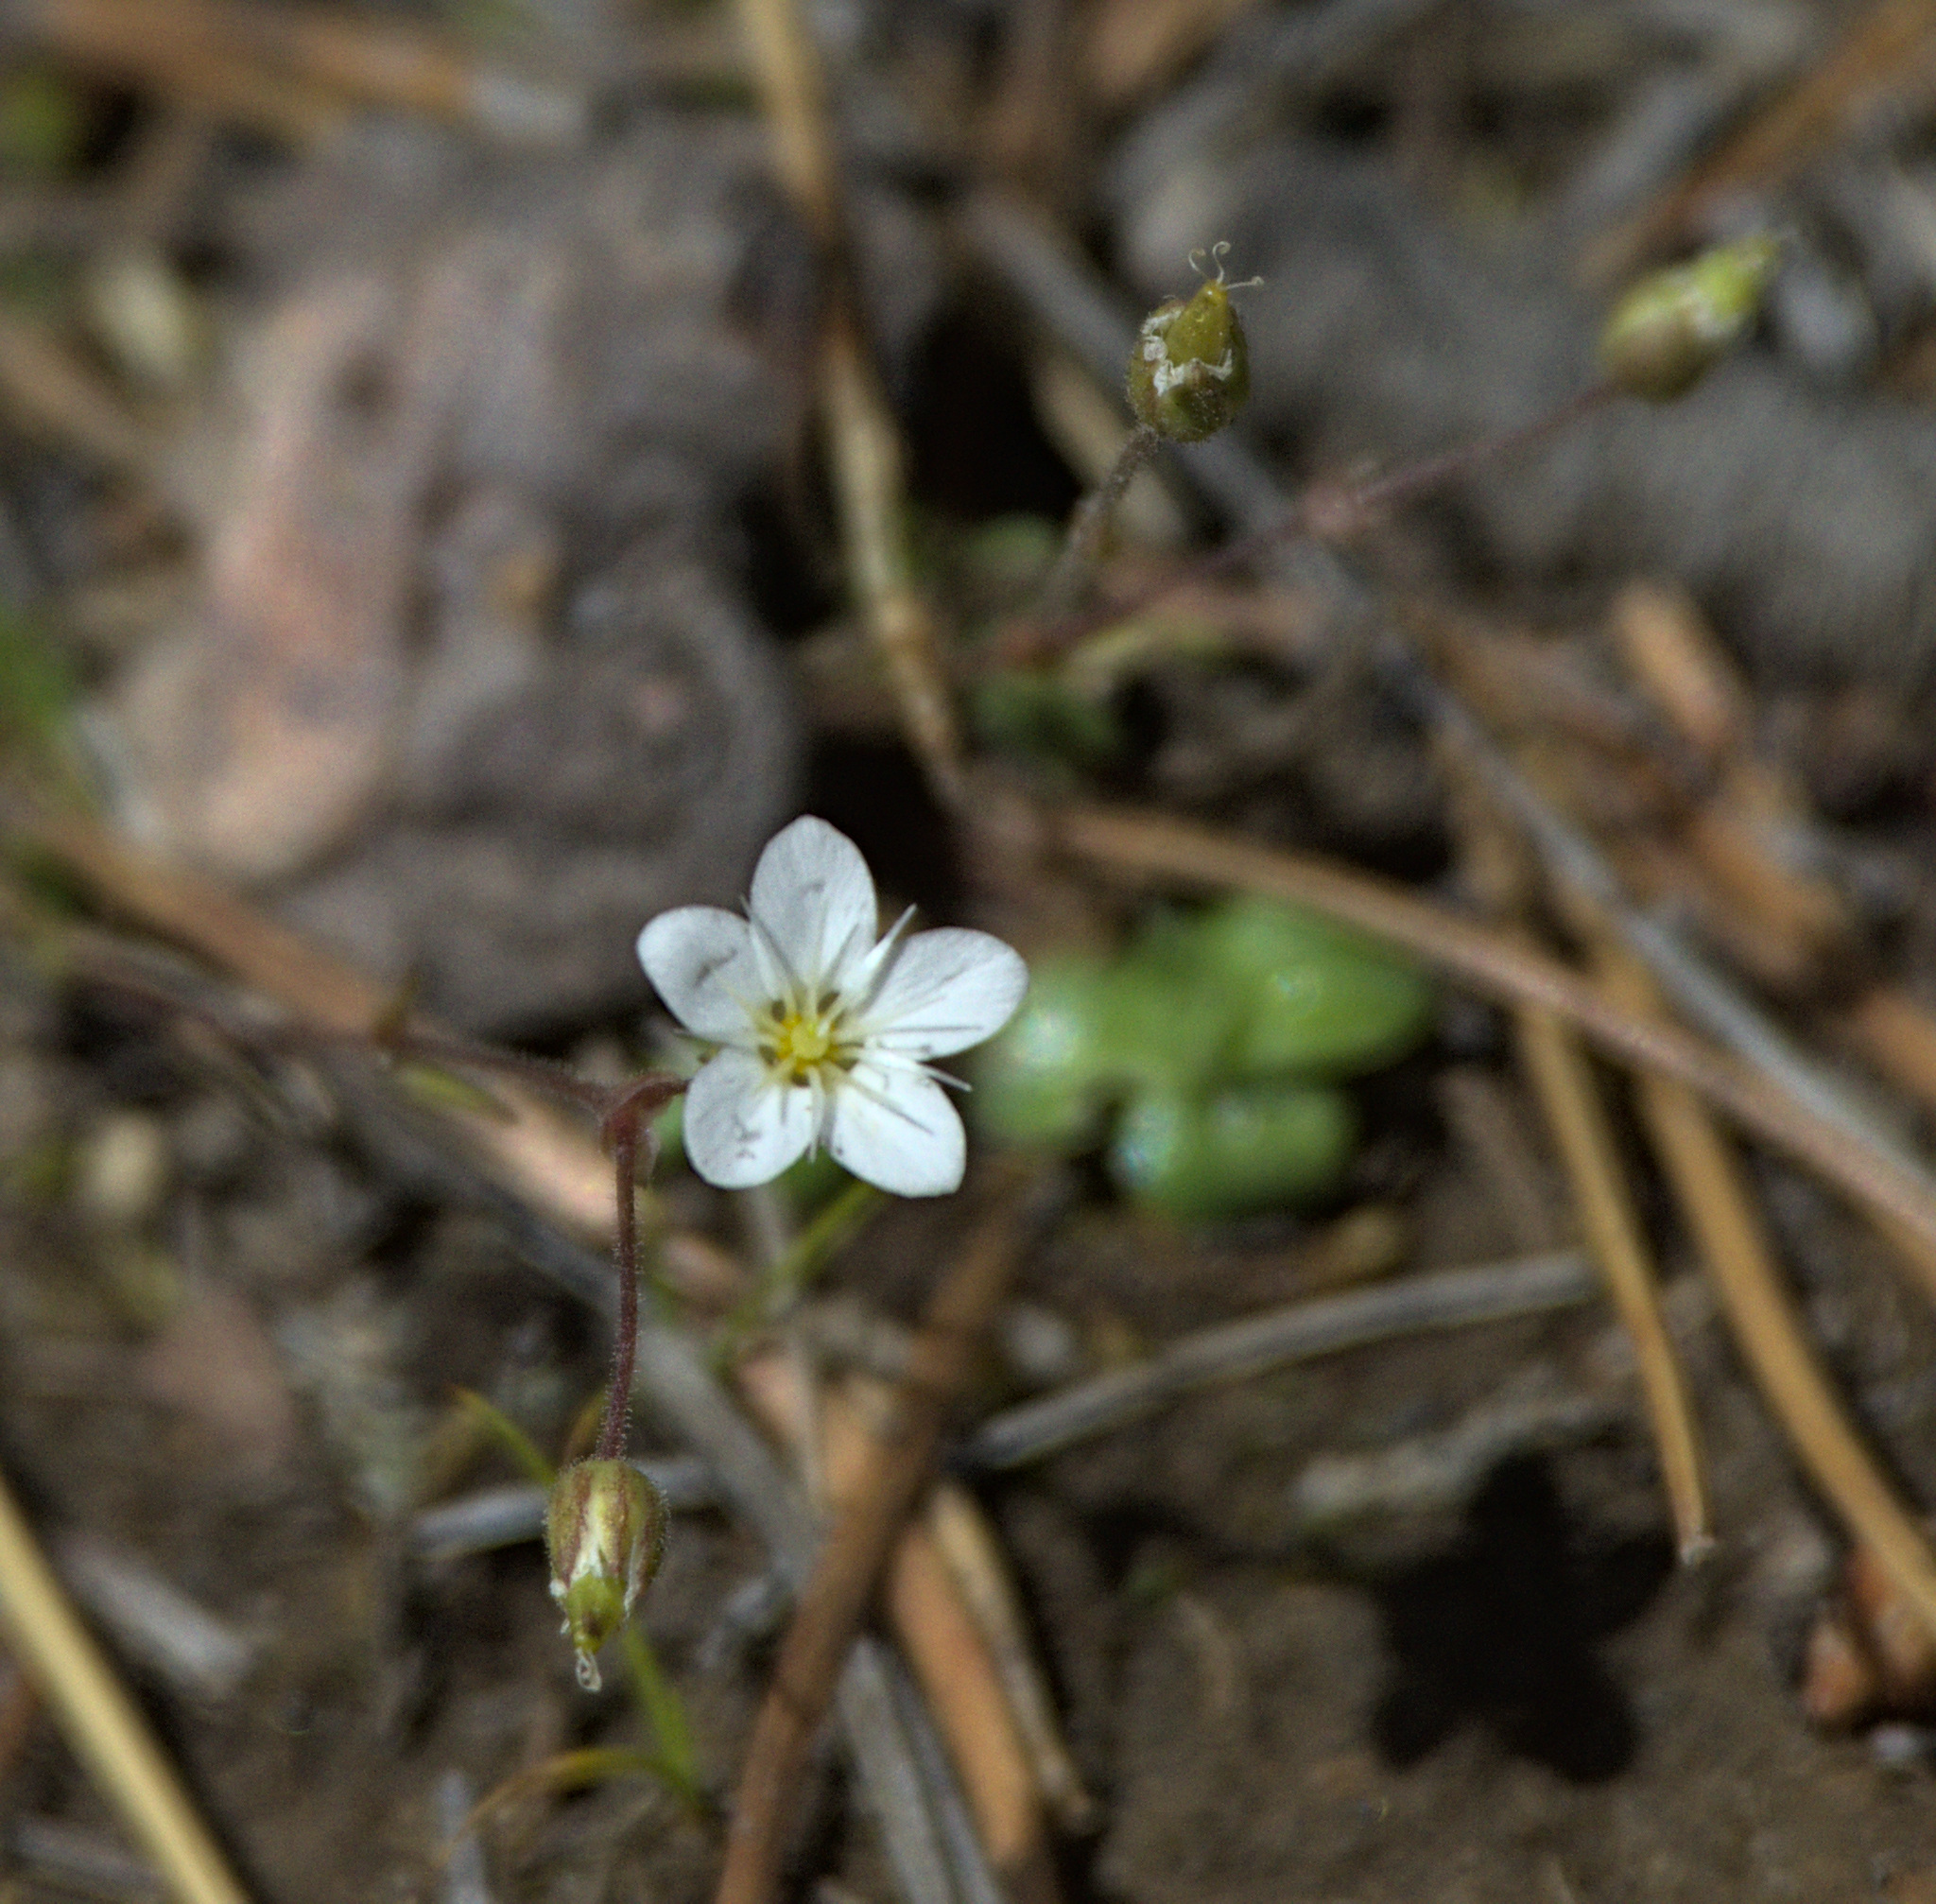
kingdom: Plantae
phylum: Tracheophyta
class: Magnoliopsida
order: Caryophyllales
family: Caryophyllaceae
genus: Sabulina
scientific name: Sabulina verna
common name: Spring sandwort
